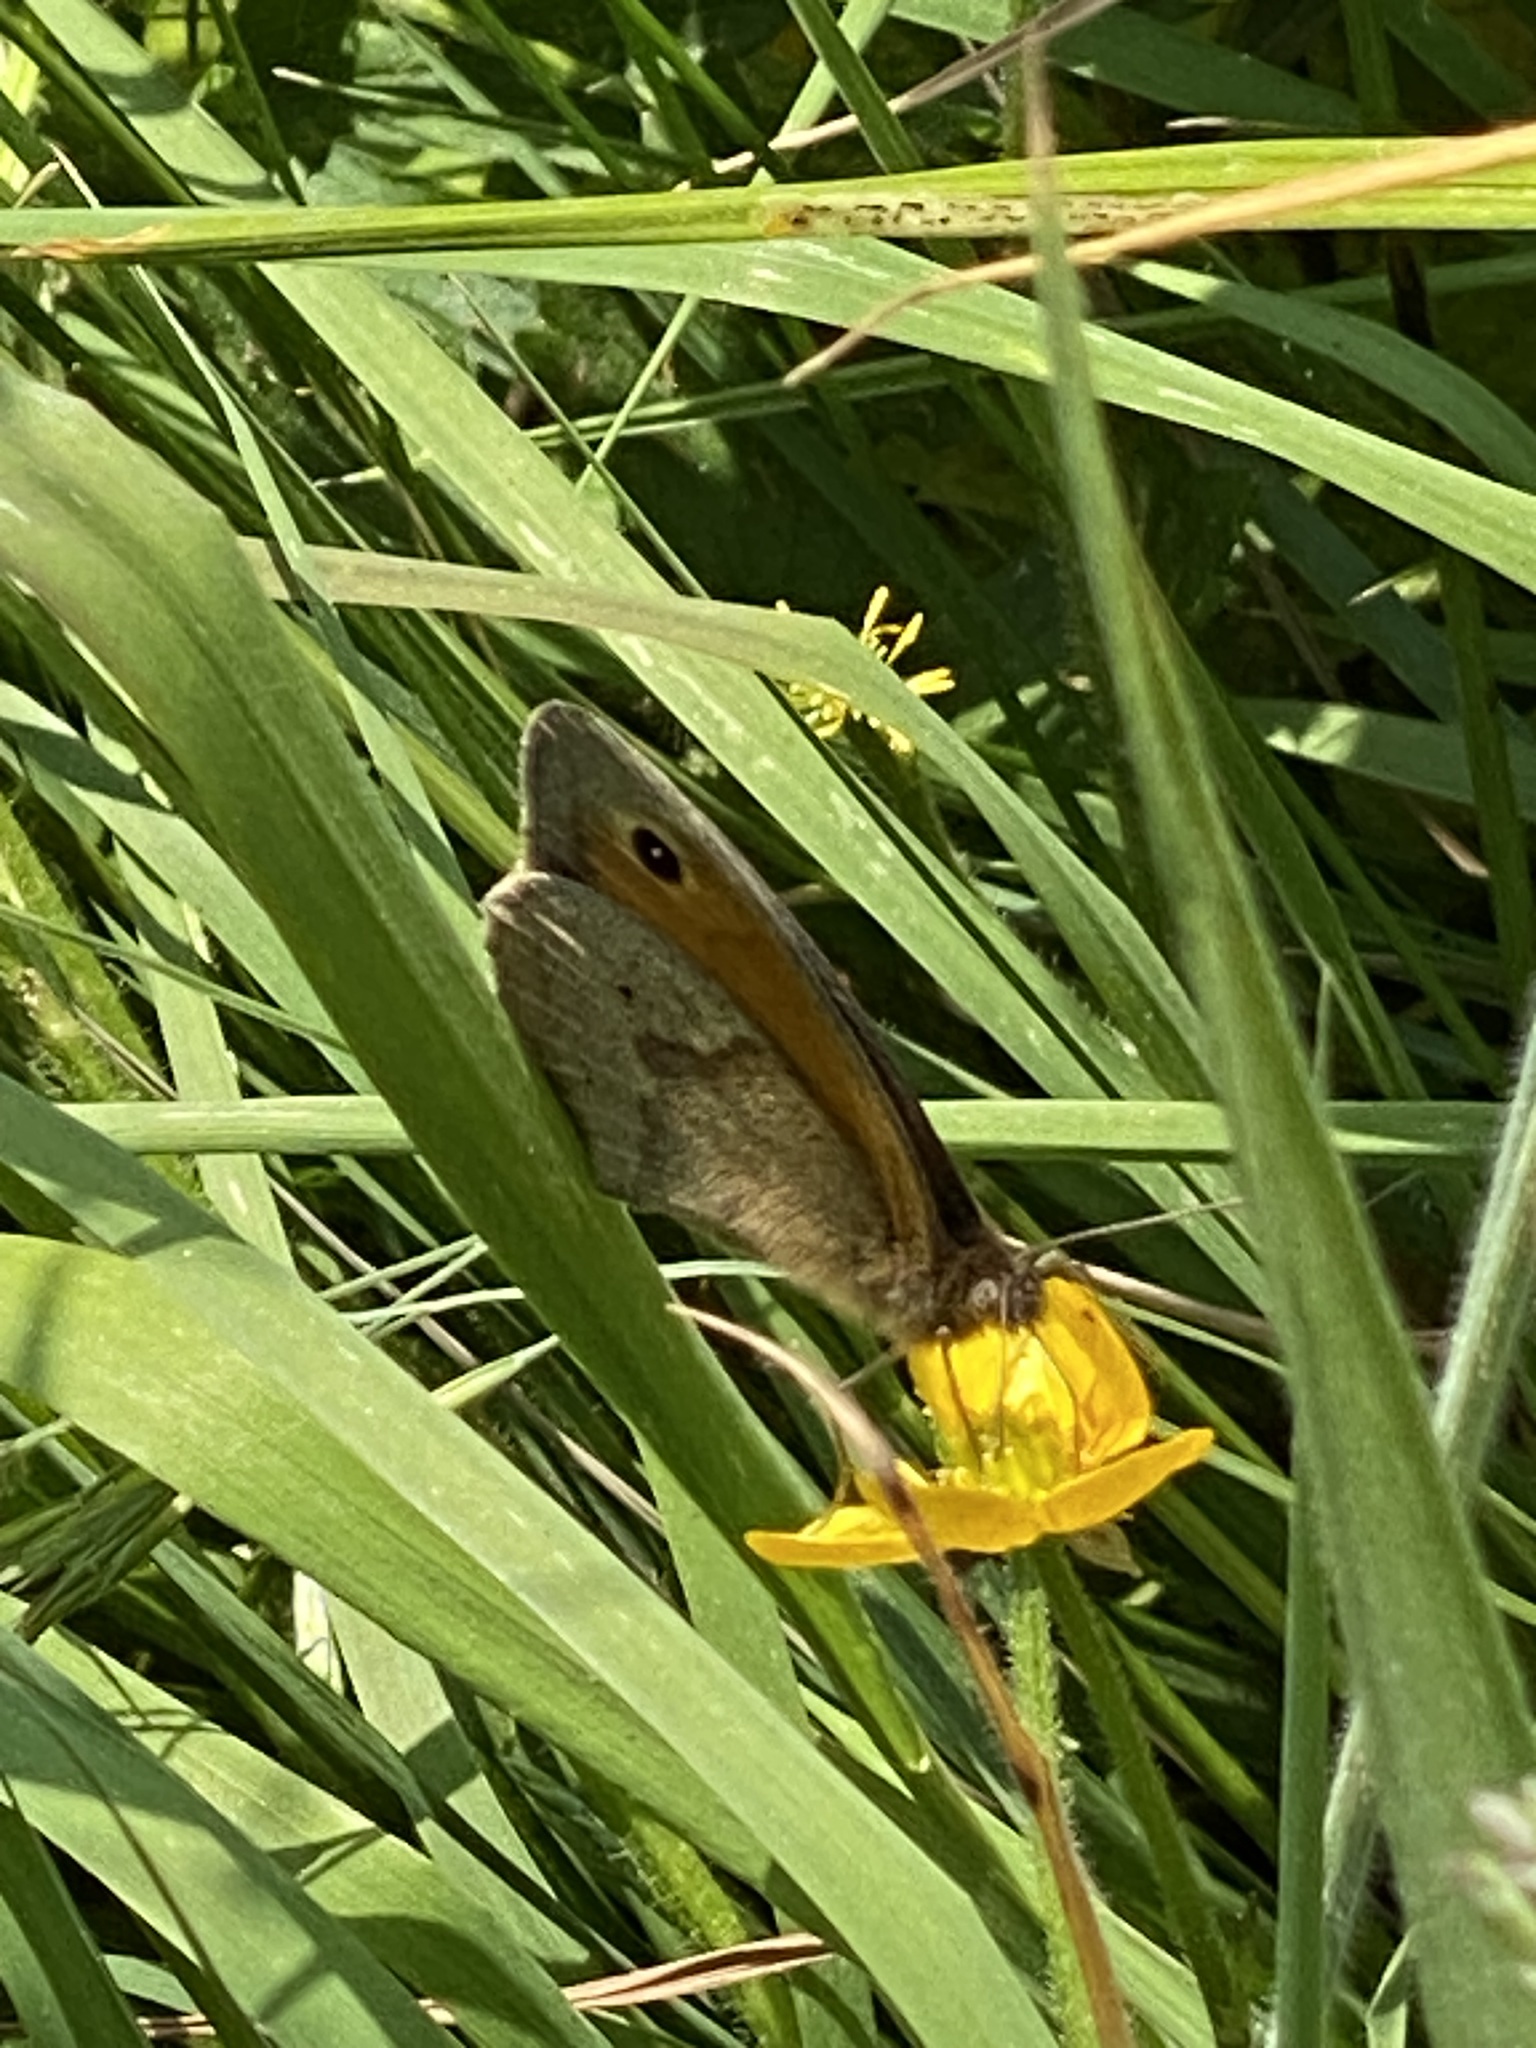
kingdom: Animalia
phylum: Arthropoda
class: Insecta
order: Lepidoptera
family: Nymphalidae
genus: Maniola
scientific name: Maniola jurtina
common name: Meadow brown
